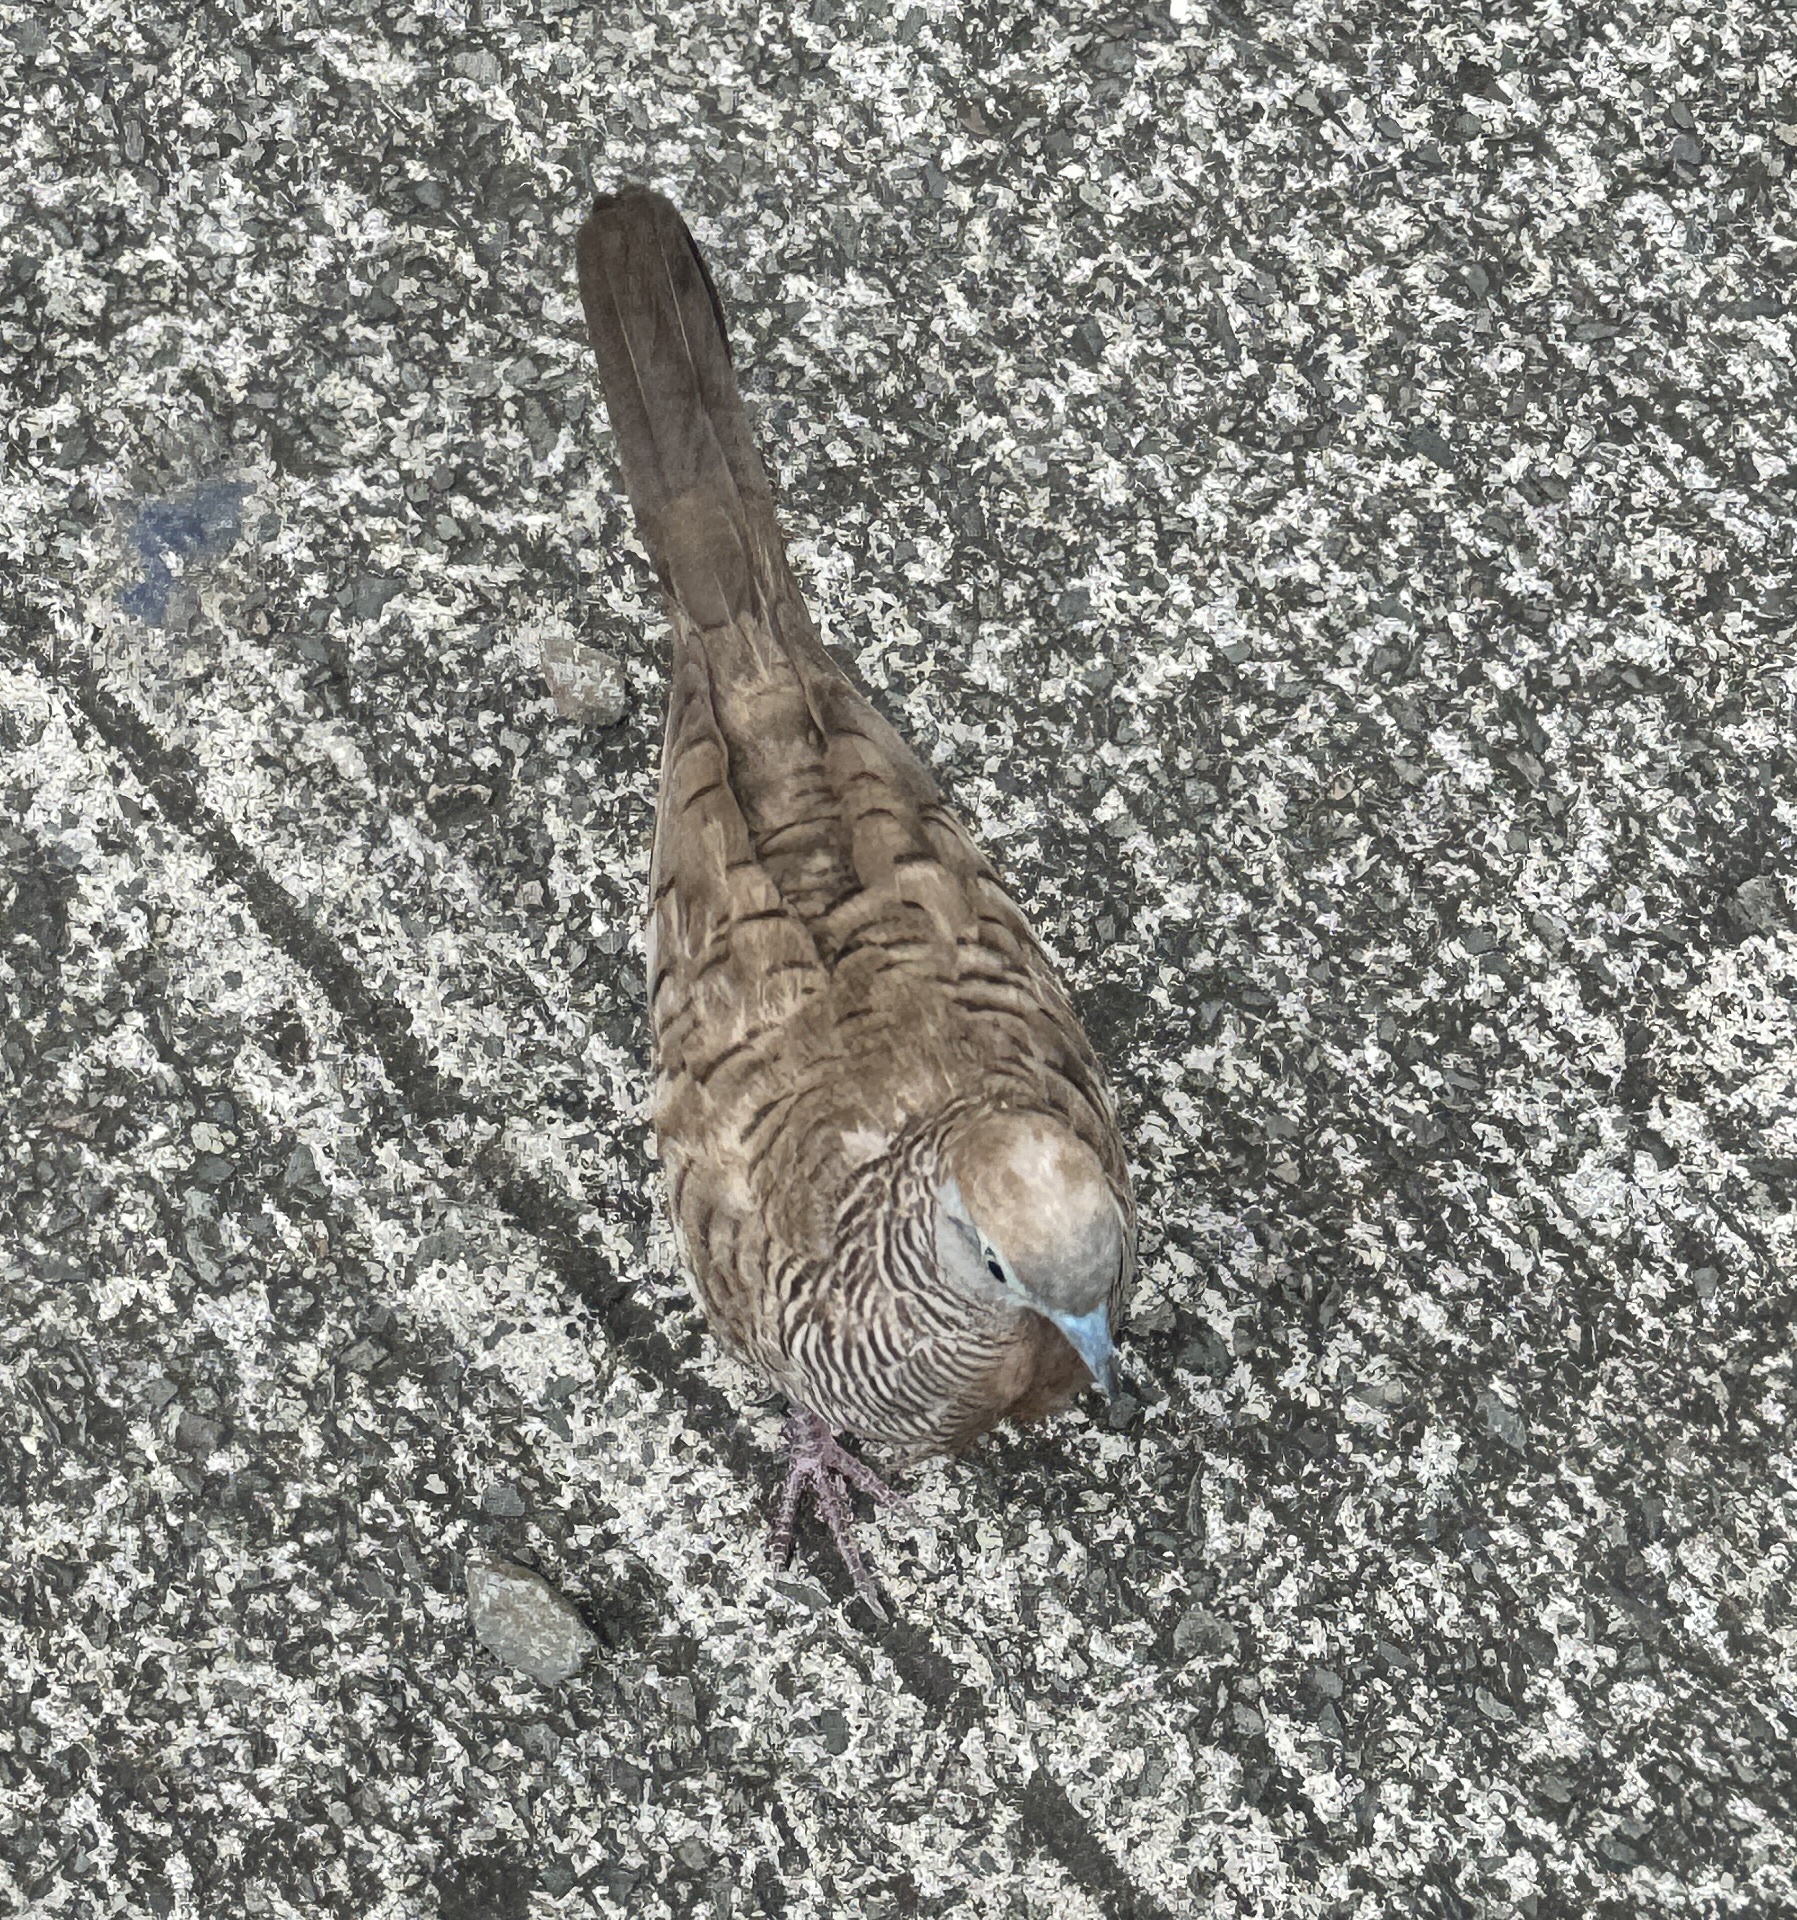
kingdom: Animalia
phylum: Chordata
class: Aves
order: Columbiformes
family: Columbidae
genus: Geopelia
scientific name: Geopelia striata
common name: Zebra dove
